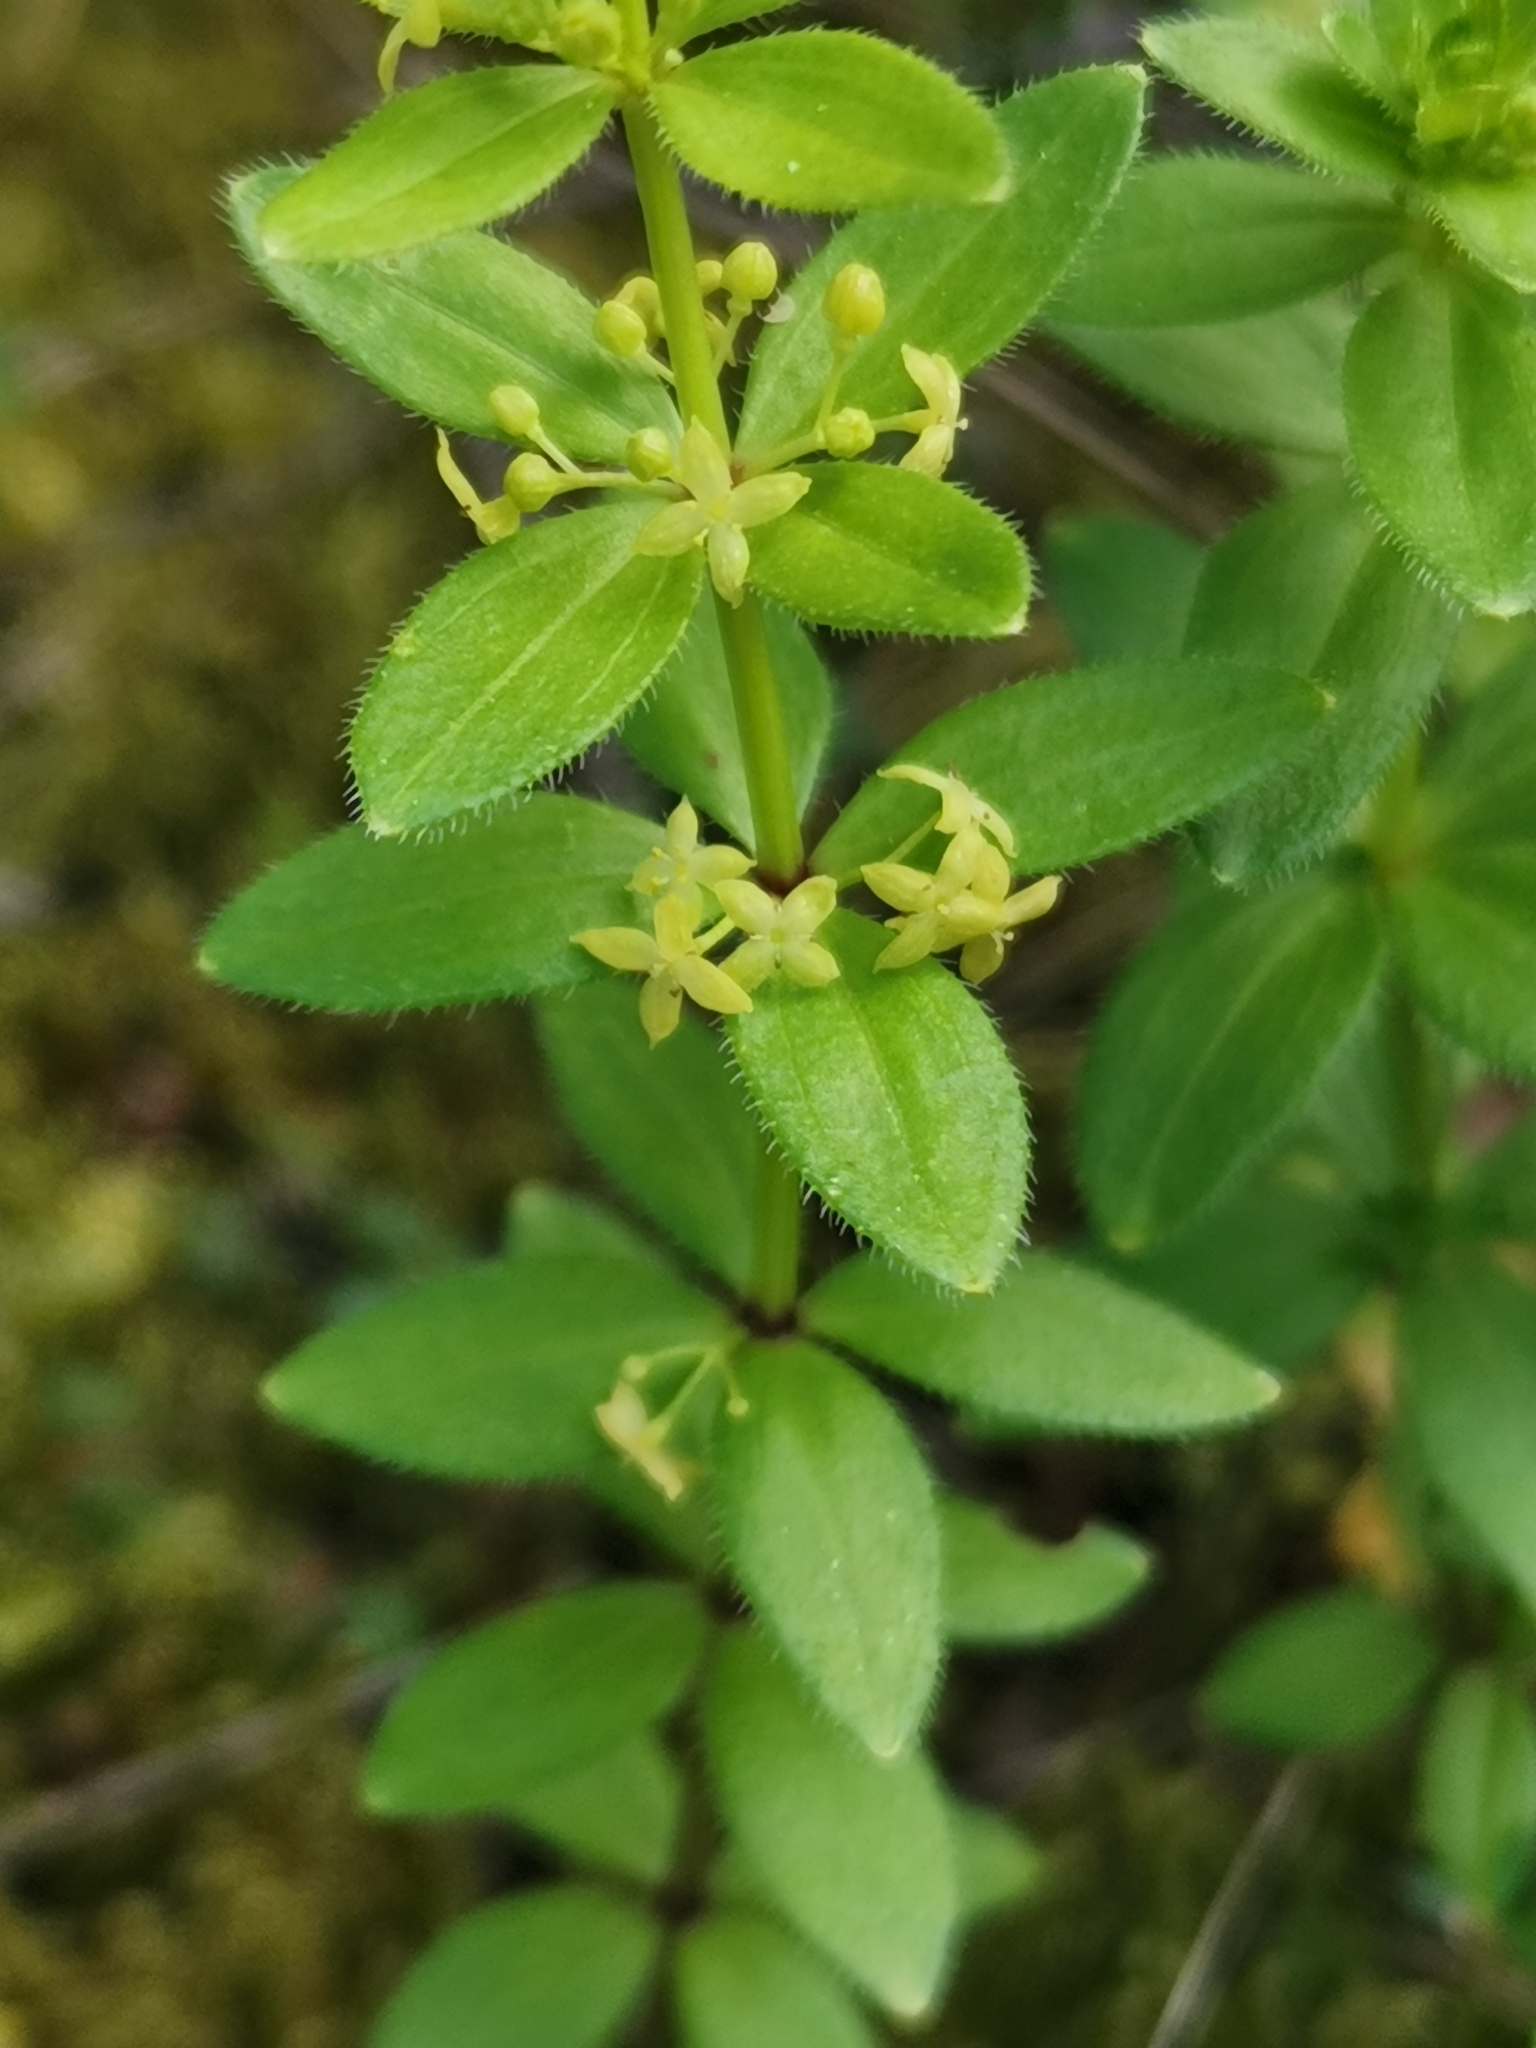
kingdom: Plantae
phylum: Tracheophyta
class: Magnoliopsida
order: Gentianales
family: Rubiaceae
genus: Cruciata
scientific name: Cruciata glabra
